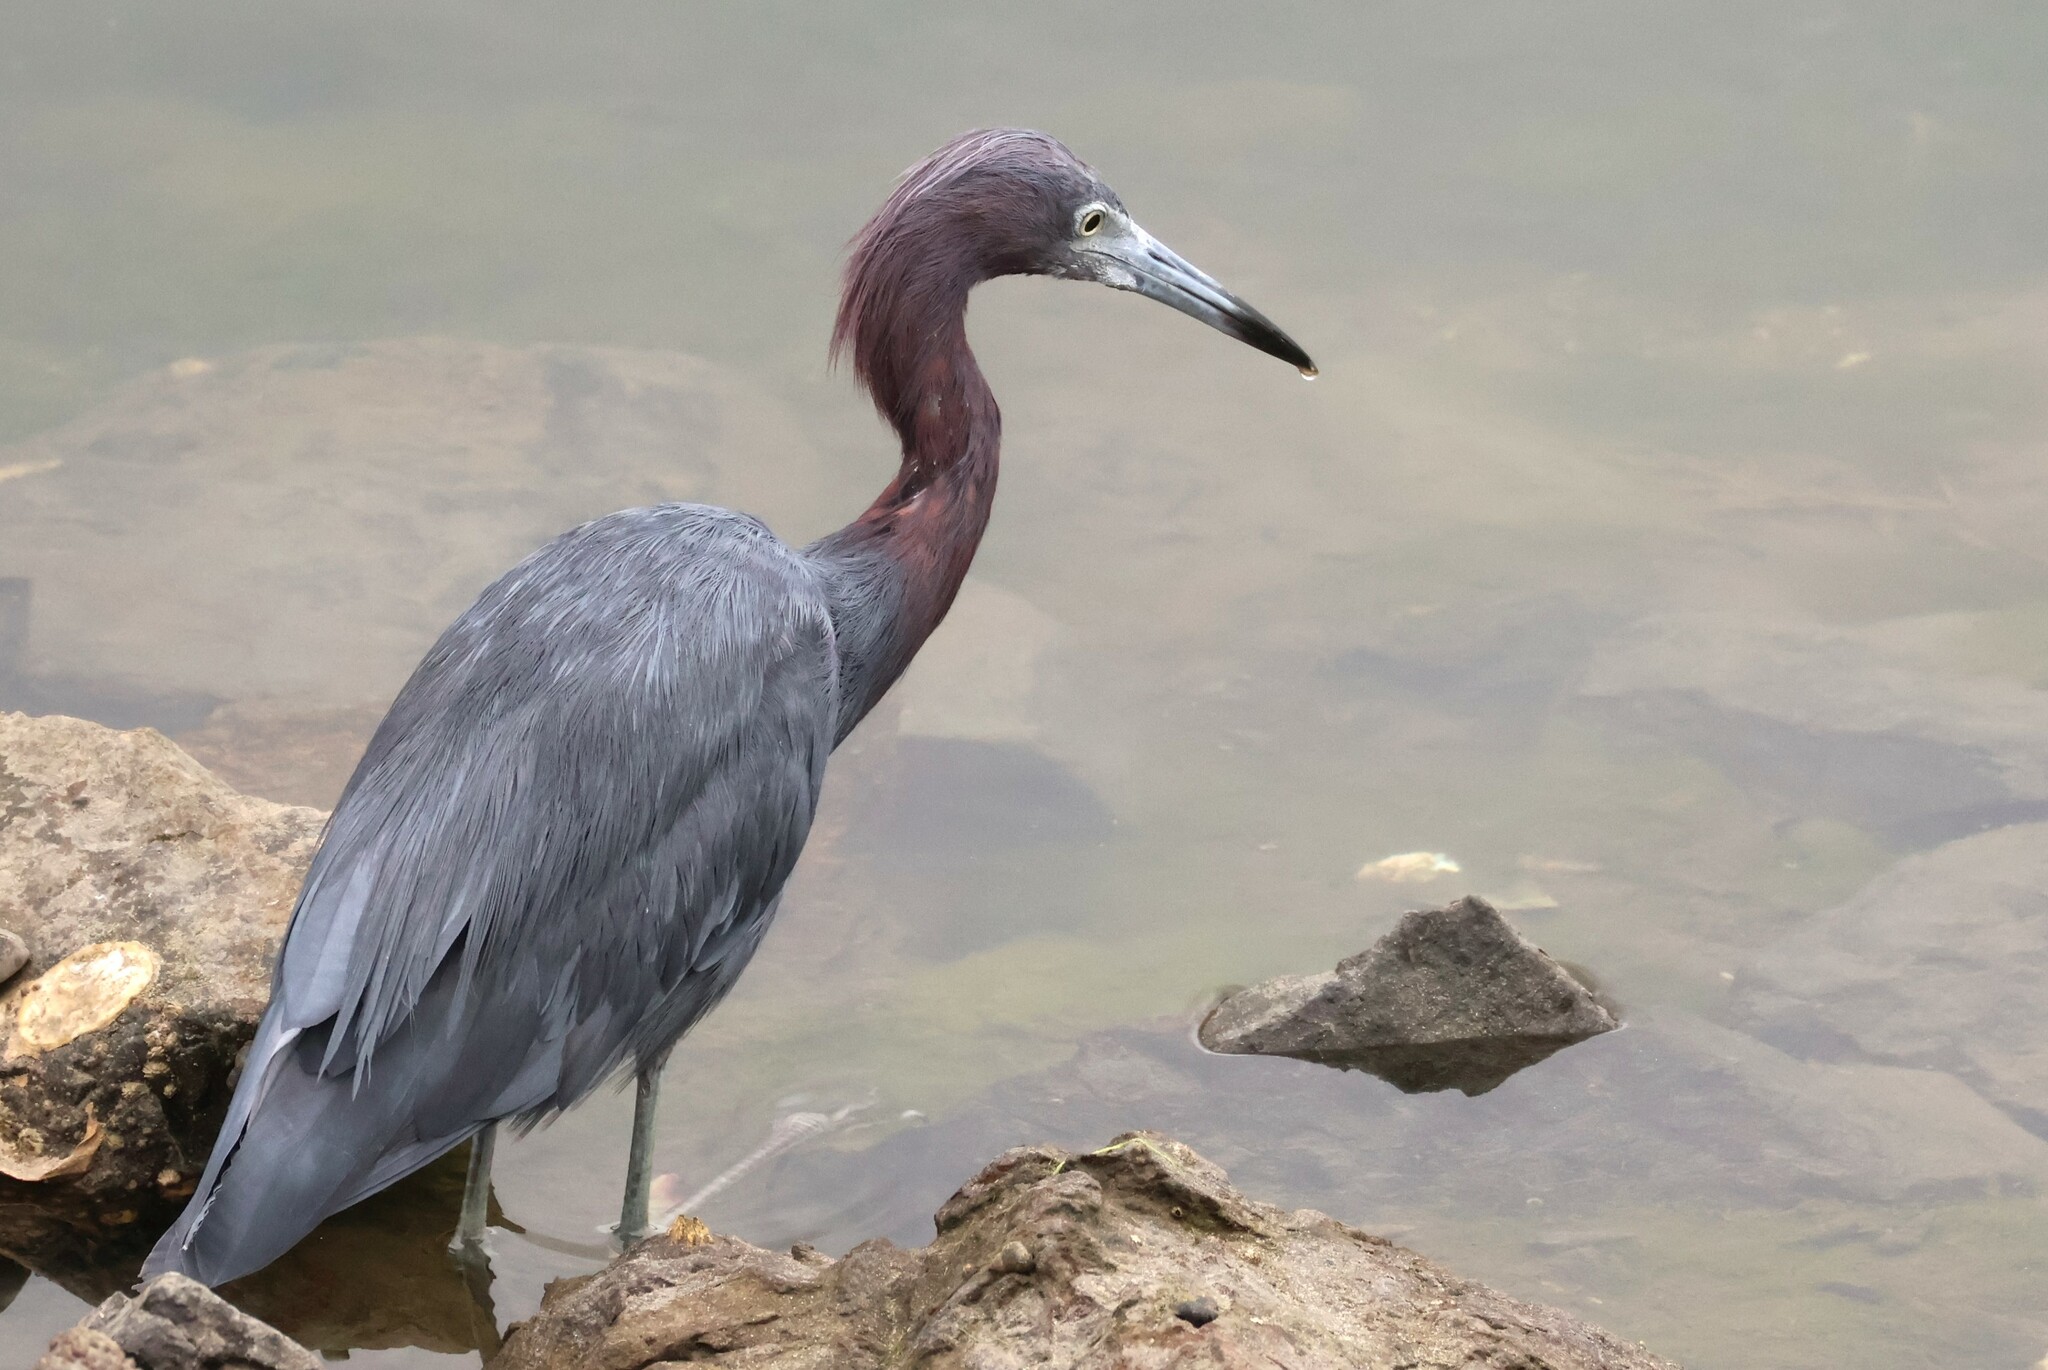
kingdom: Animalia
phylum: Chordata
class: Aves
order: Pelecaniformes
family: Ardeidae
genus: Egretta
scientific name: Egretta caerulea
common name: Little blue heron
